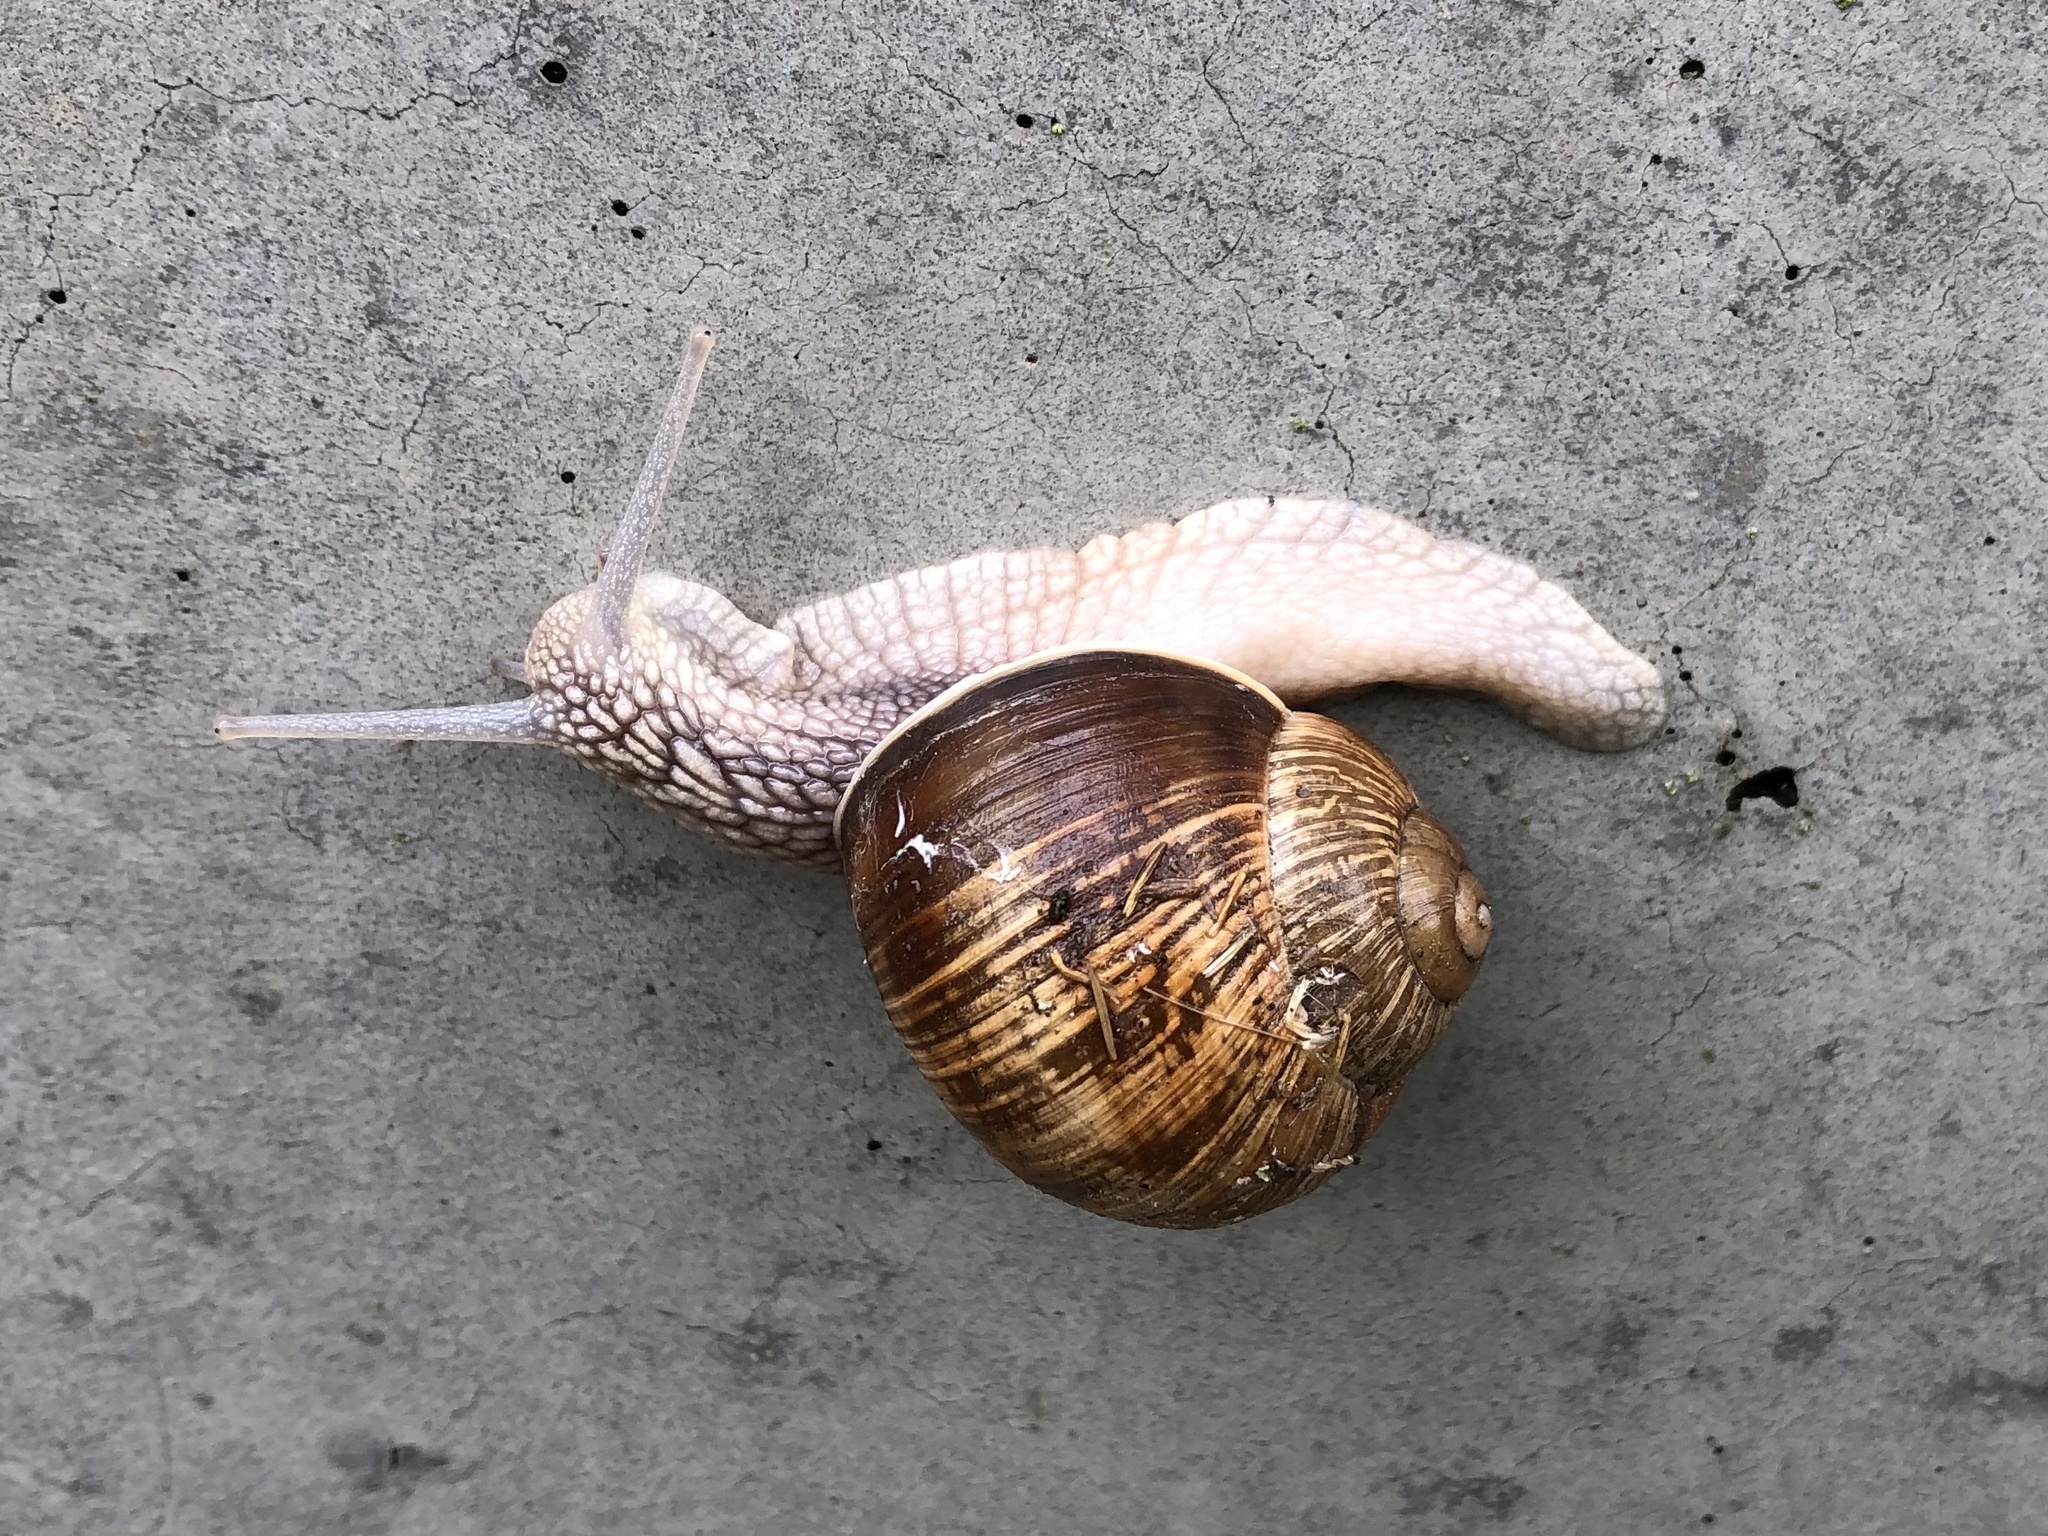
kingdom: Animalia
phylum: Mollusca
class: Gastropoda
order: Stylommatophora
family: Helicidae
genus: Helix
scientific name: Helix pomatia
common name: Roman snail
